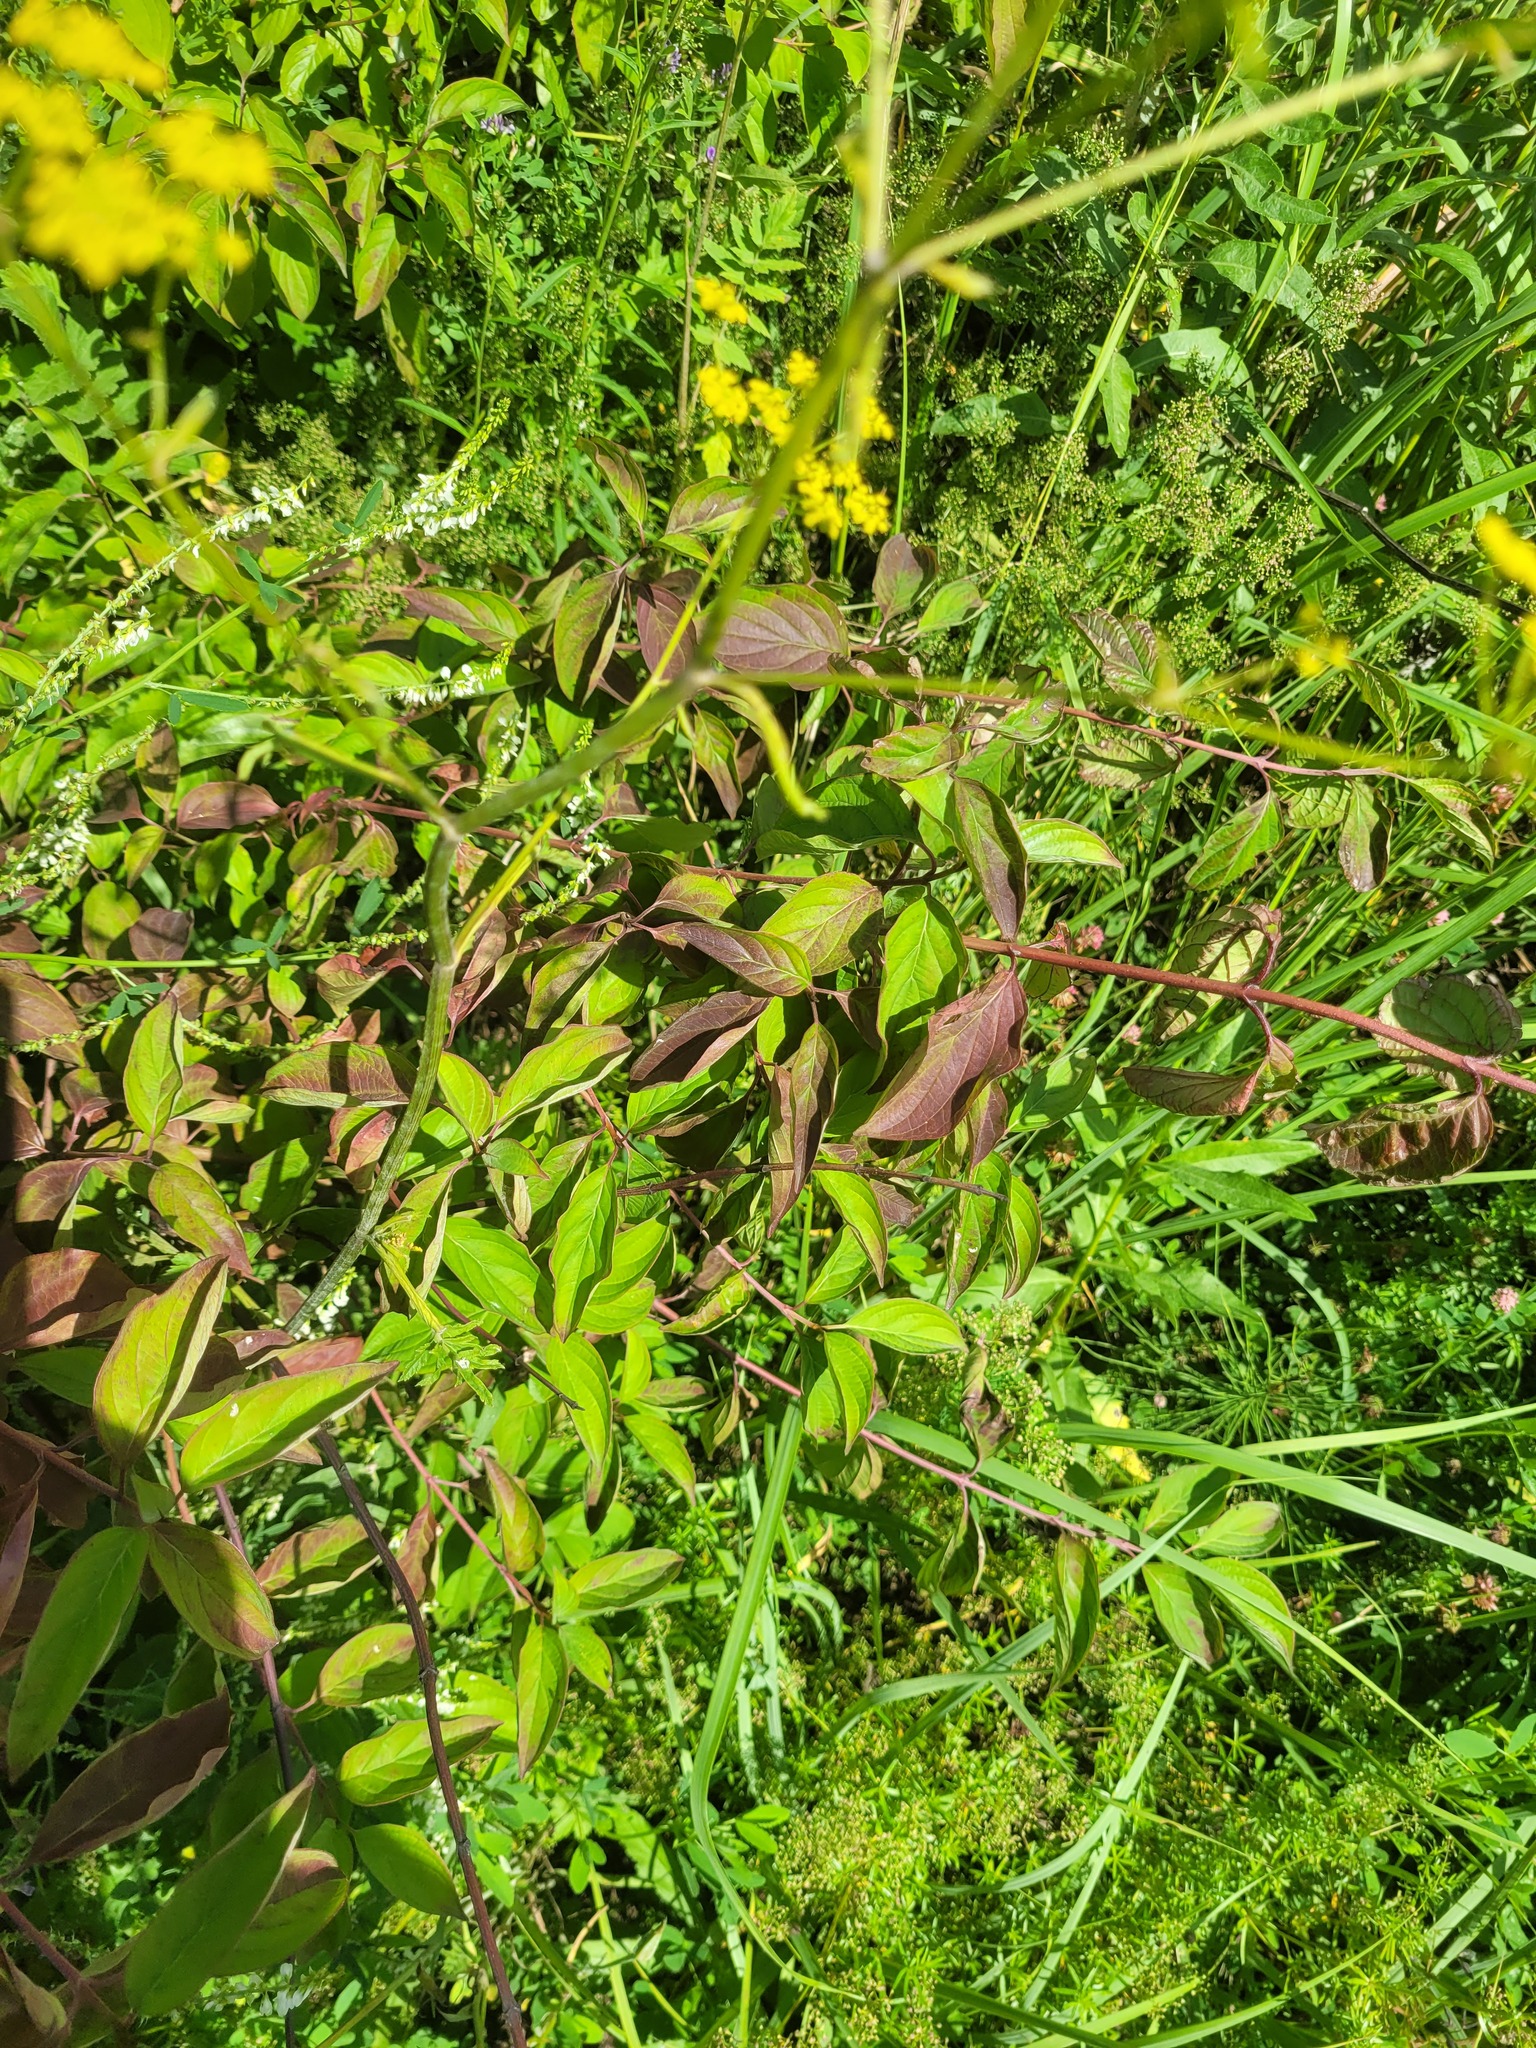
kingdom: Plantae
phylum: Tracheophyta
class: Magnoliopsida
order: Cornales
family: Cornaceae
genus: Cornus
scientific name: Cornus sanguinea
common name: Dogwood
